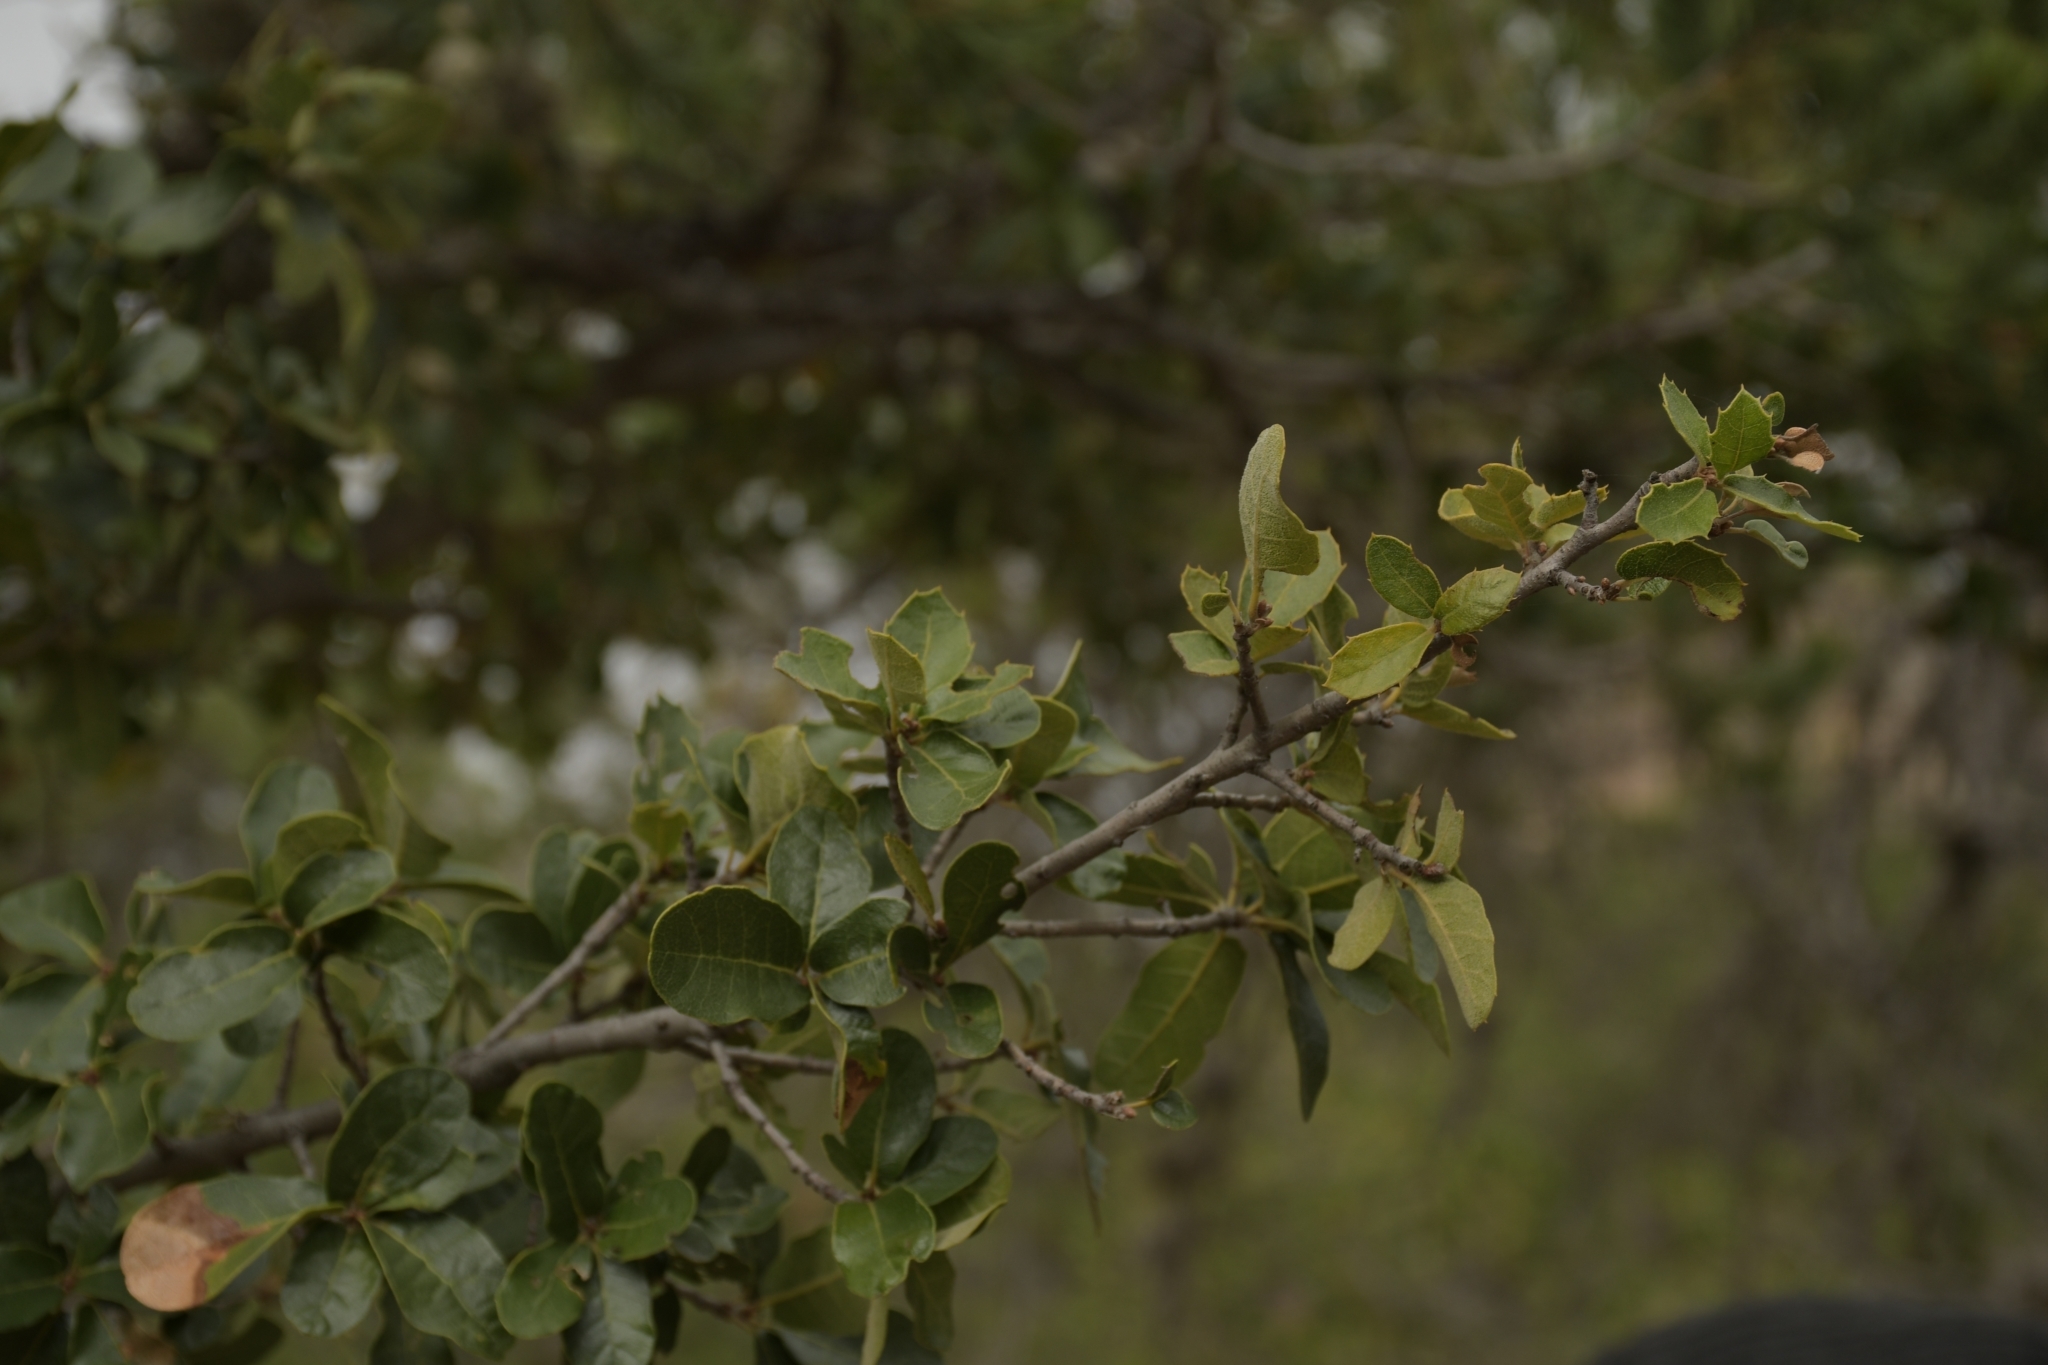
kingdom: Plantae
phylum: Tracheophyta
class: Magnoliopsida
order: Fagales
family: Fagaceae
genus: Quercus
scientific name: Quercus potosina
